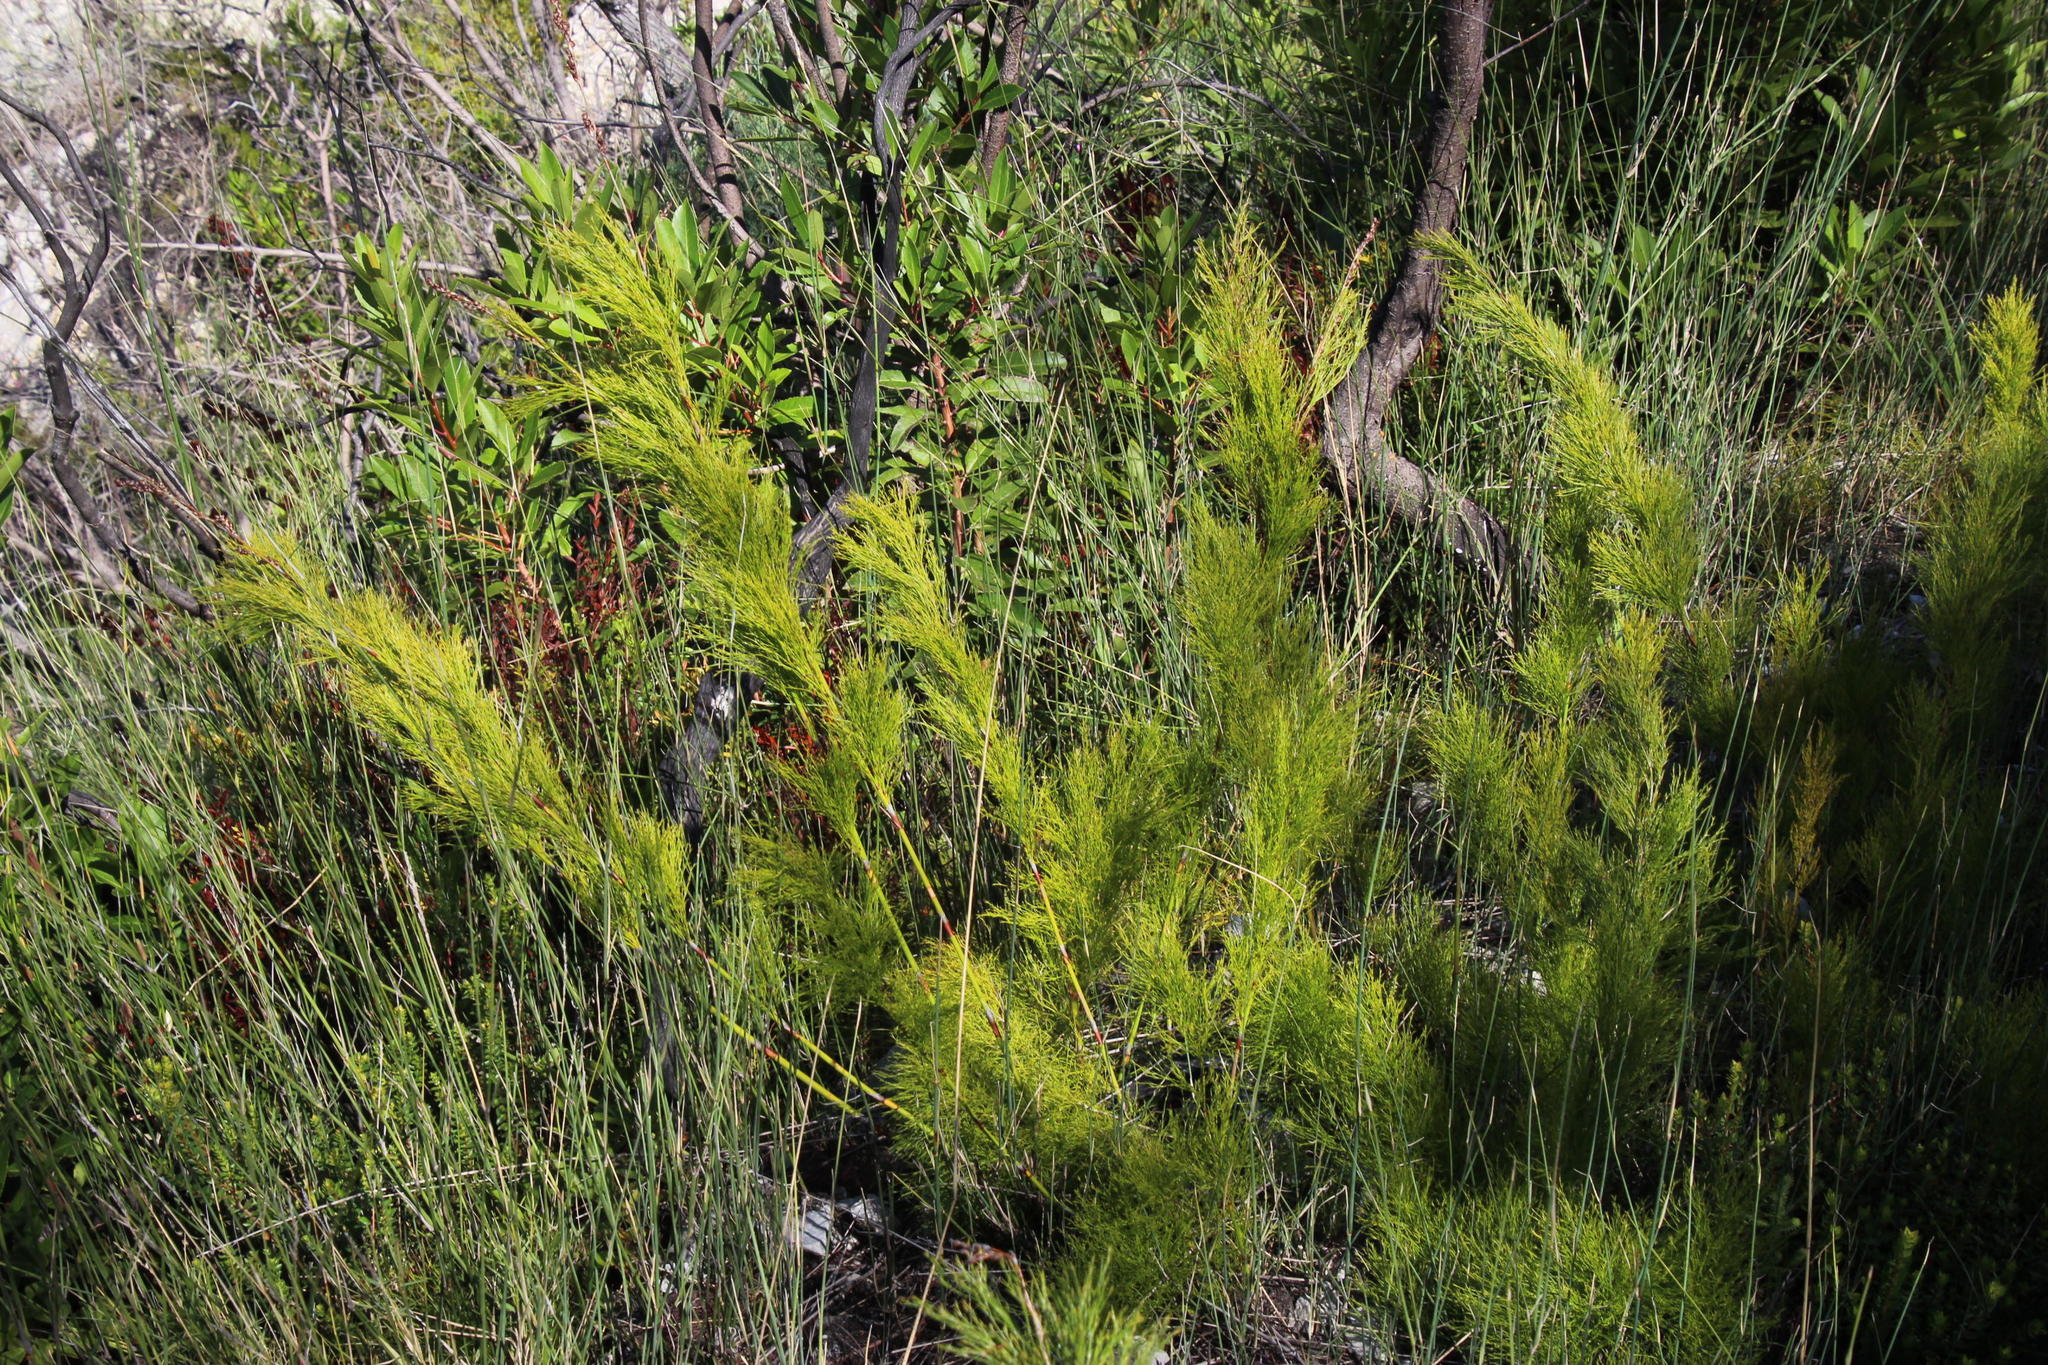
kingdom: Plantae
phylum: Tracheophyta
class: Liliopsida
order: Poales
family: Restionaceae
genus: Rhodocoma
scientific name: Rhodocoma foliosa
